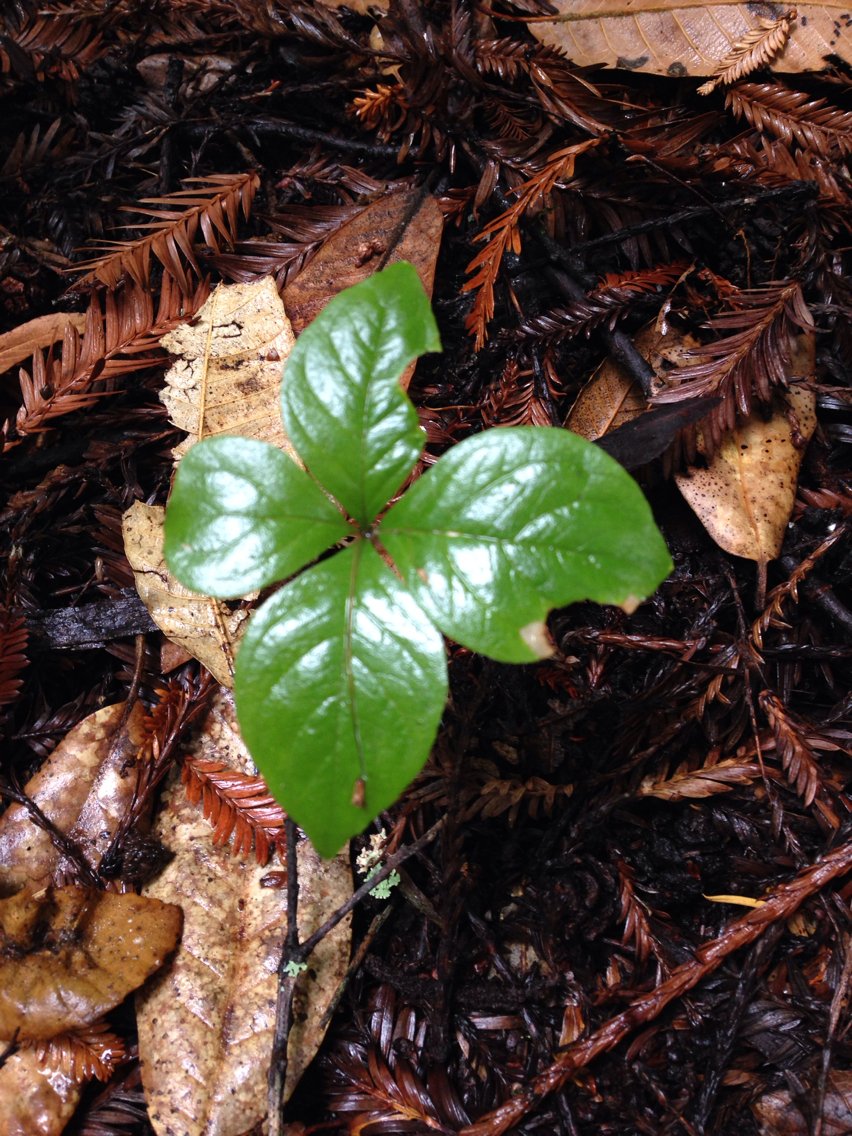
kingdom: Plantae
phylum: Tracheophyta
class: Magnoliopsida
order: Ericales
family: Primulaceae
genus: Lysimachia
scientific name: Lysimachia latifolia
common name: Pacific starflower
